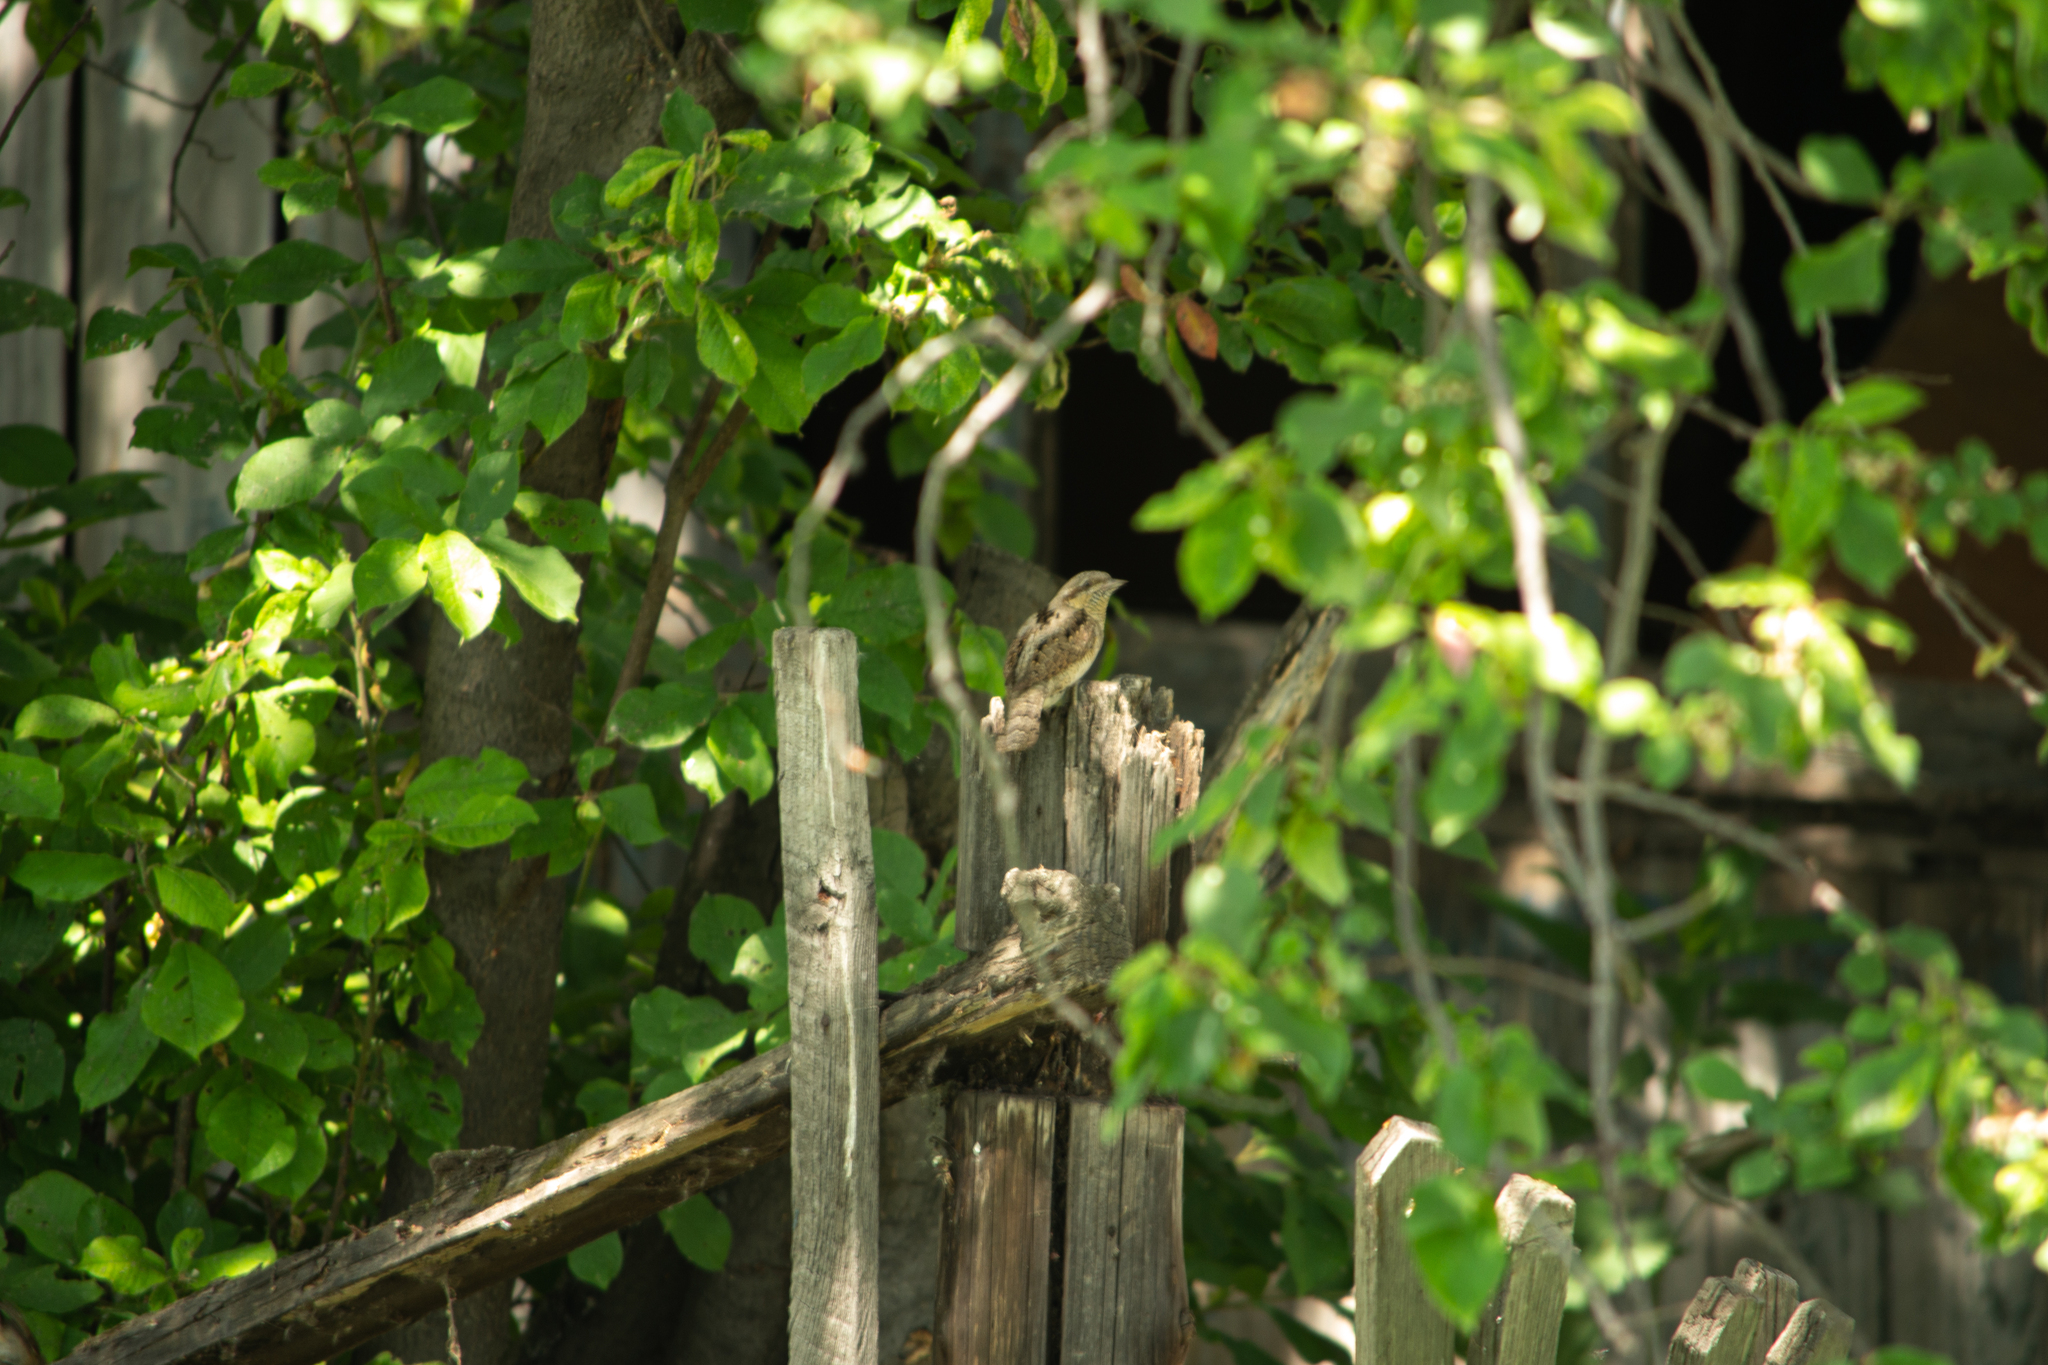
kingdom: Animalia
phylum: Chordata
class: Aves
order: Piciformes
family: Picidae
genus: Jynx
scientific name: Jynx torquilla
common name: Eurasian wryneck
